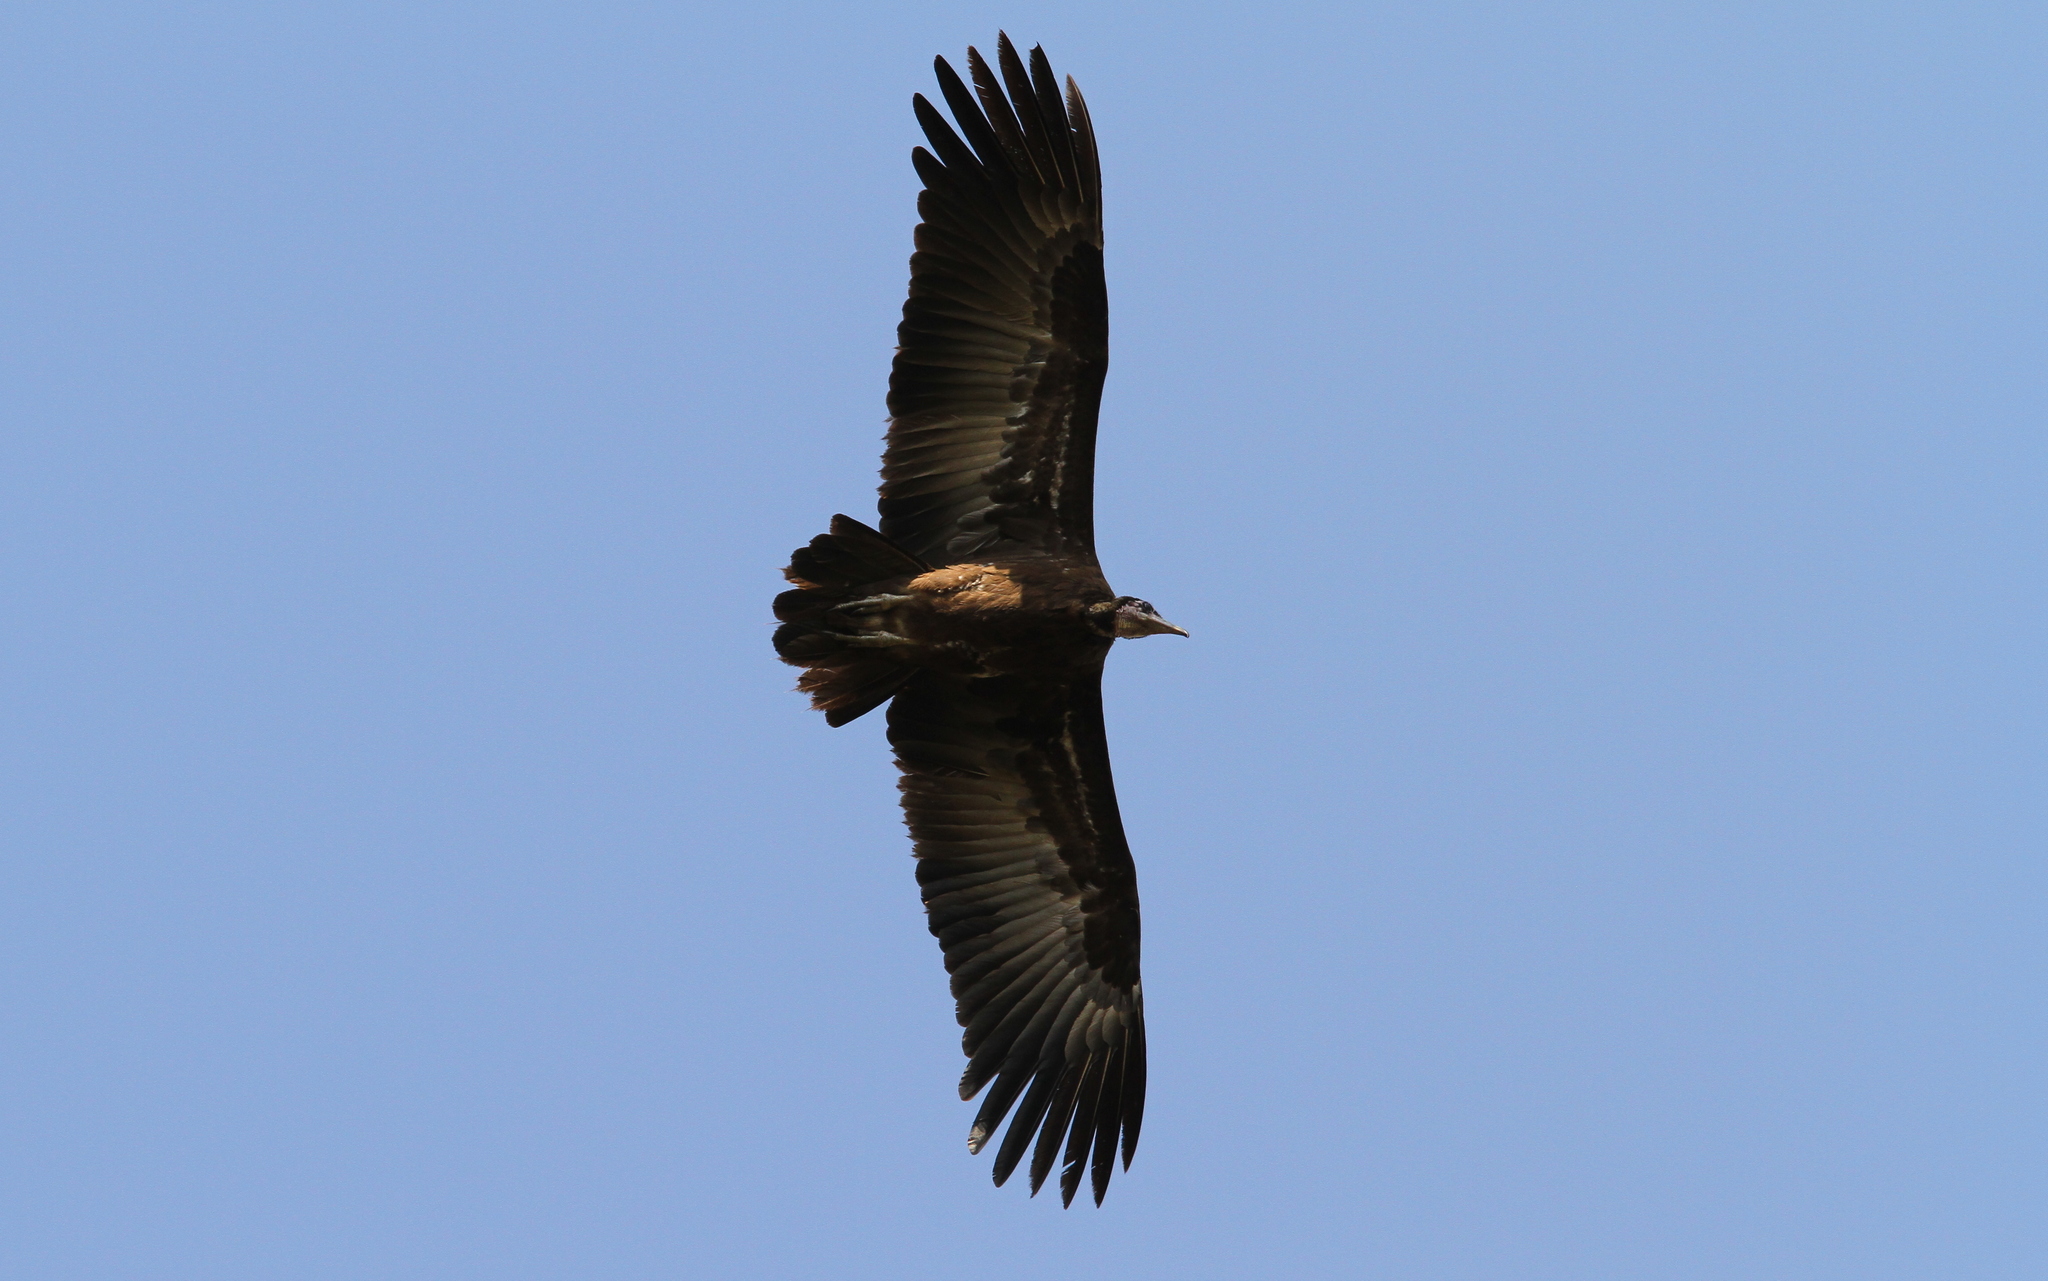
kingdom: Animalia
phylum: Chordata
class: Aves
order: Accipitriformes
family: Accipitridae
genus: Necrosyrtes
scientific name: Necrosyrtes monachus
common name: Hooded vulture
